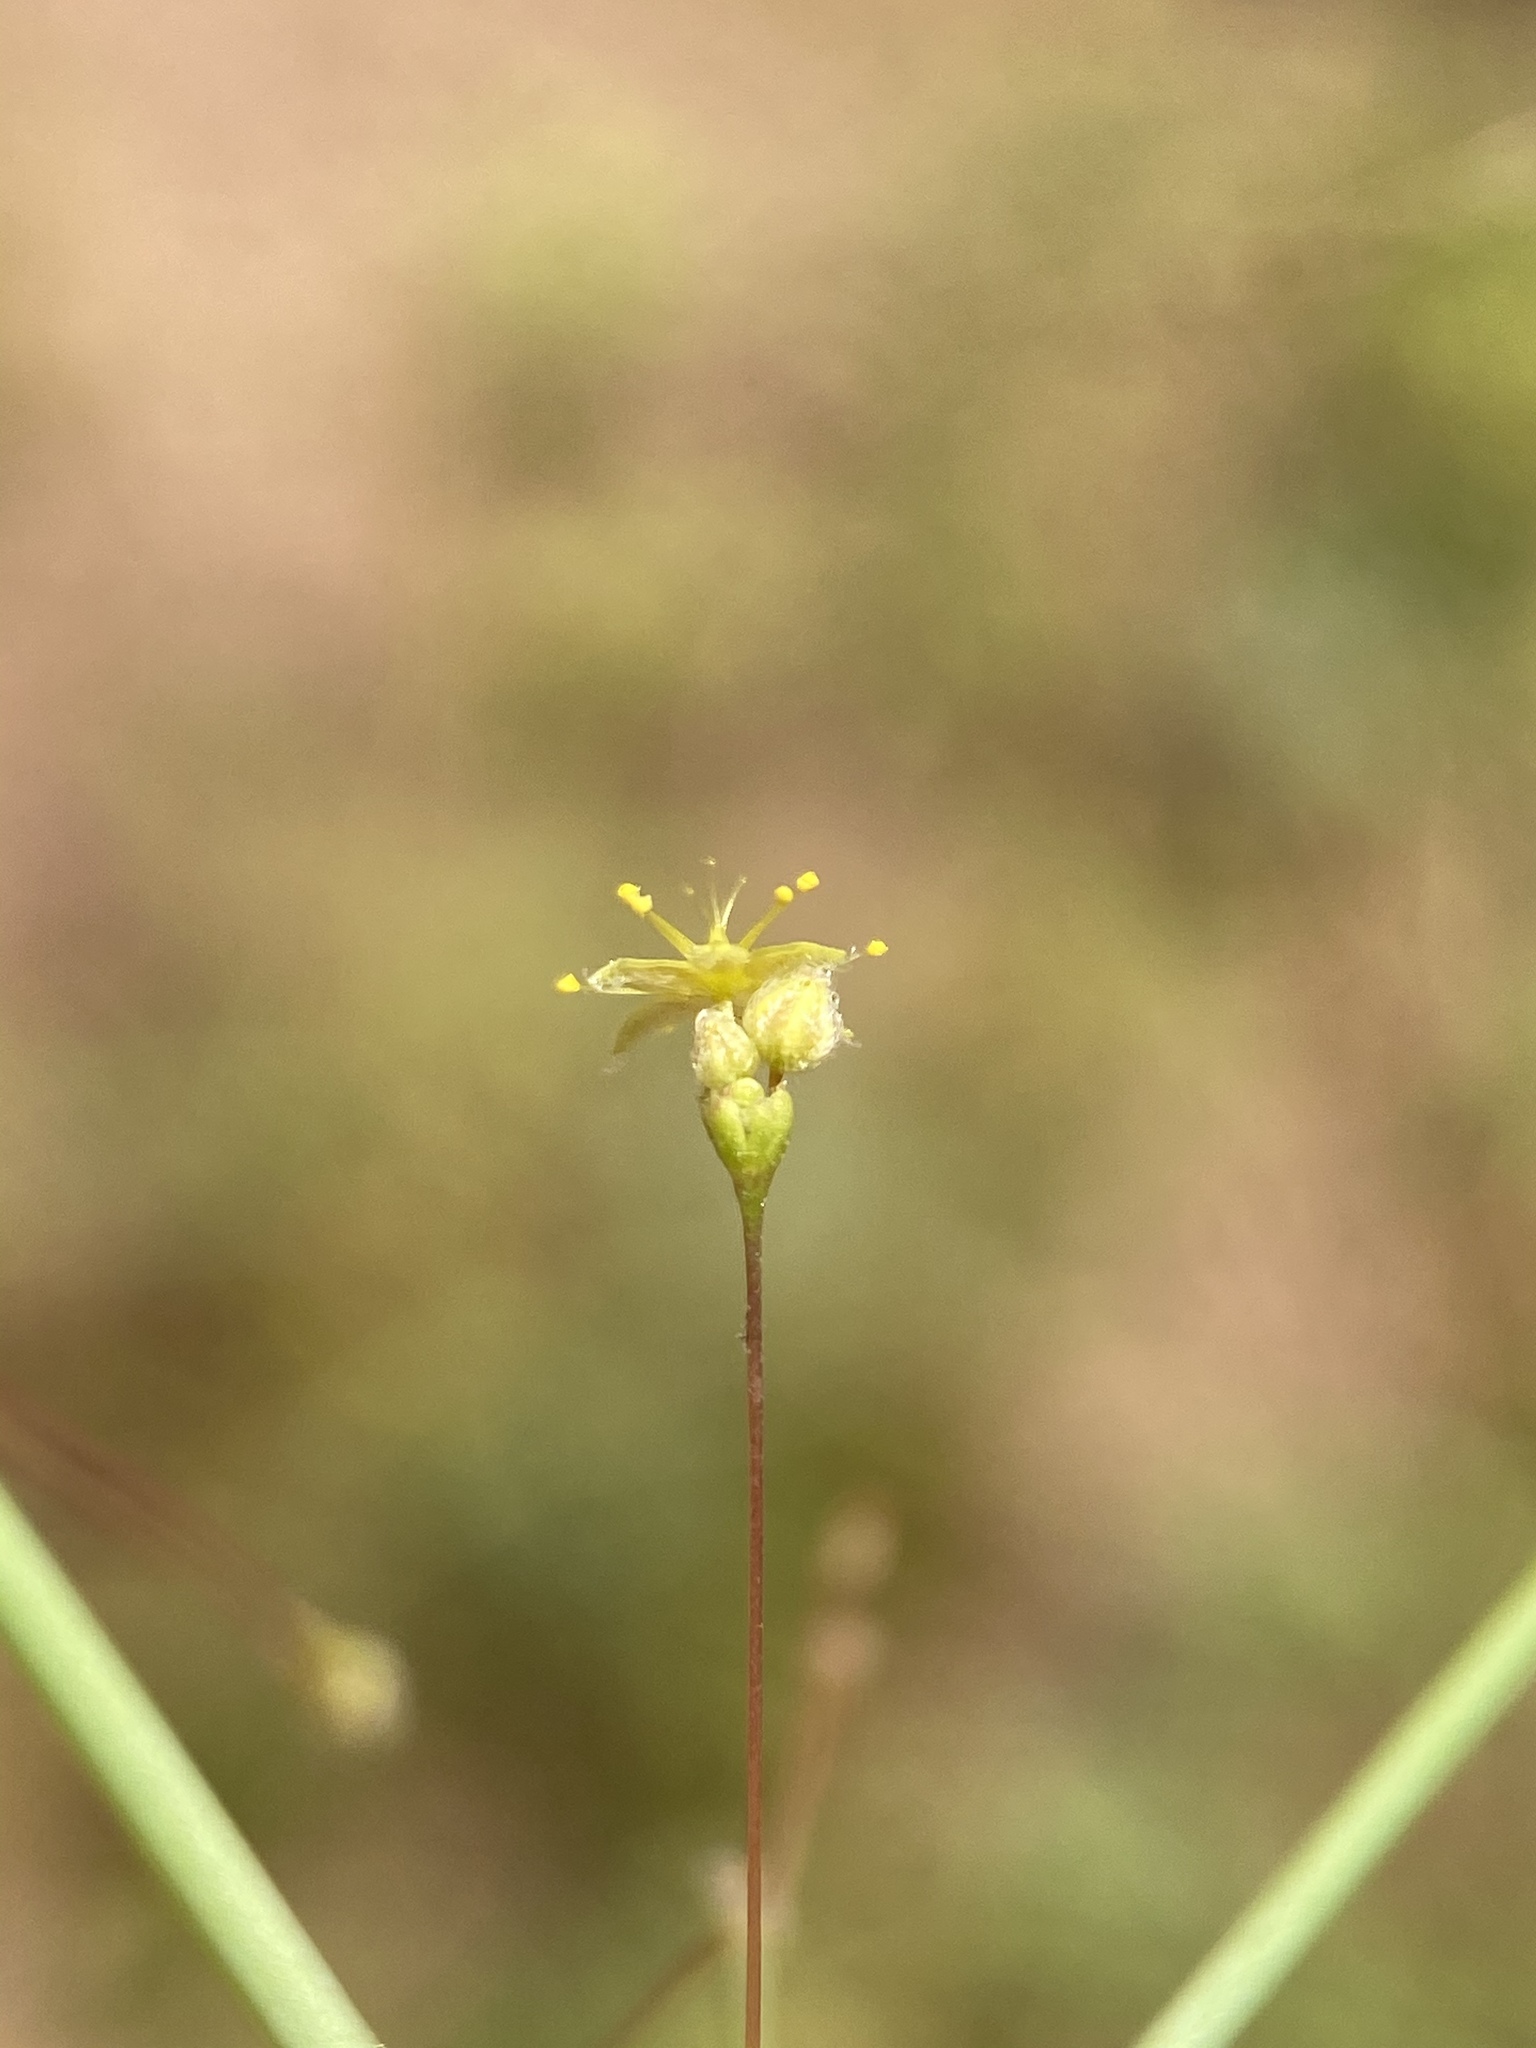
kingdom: Plantae
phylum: Tracheophyta
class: Magnoliopsida
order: Caryophyllales
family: Polygonaceae
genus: Eriogonum
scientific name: Eriogonum trichopes
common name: Little desert trumpet
